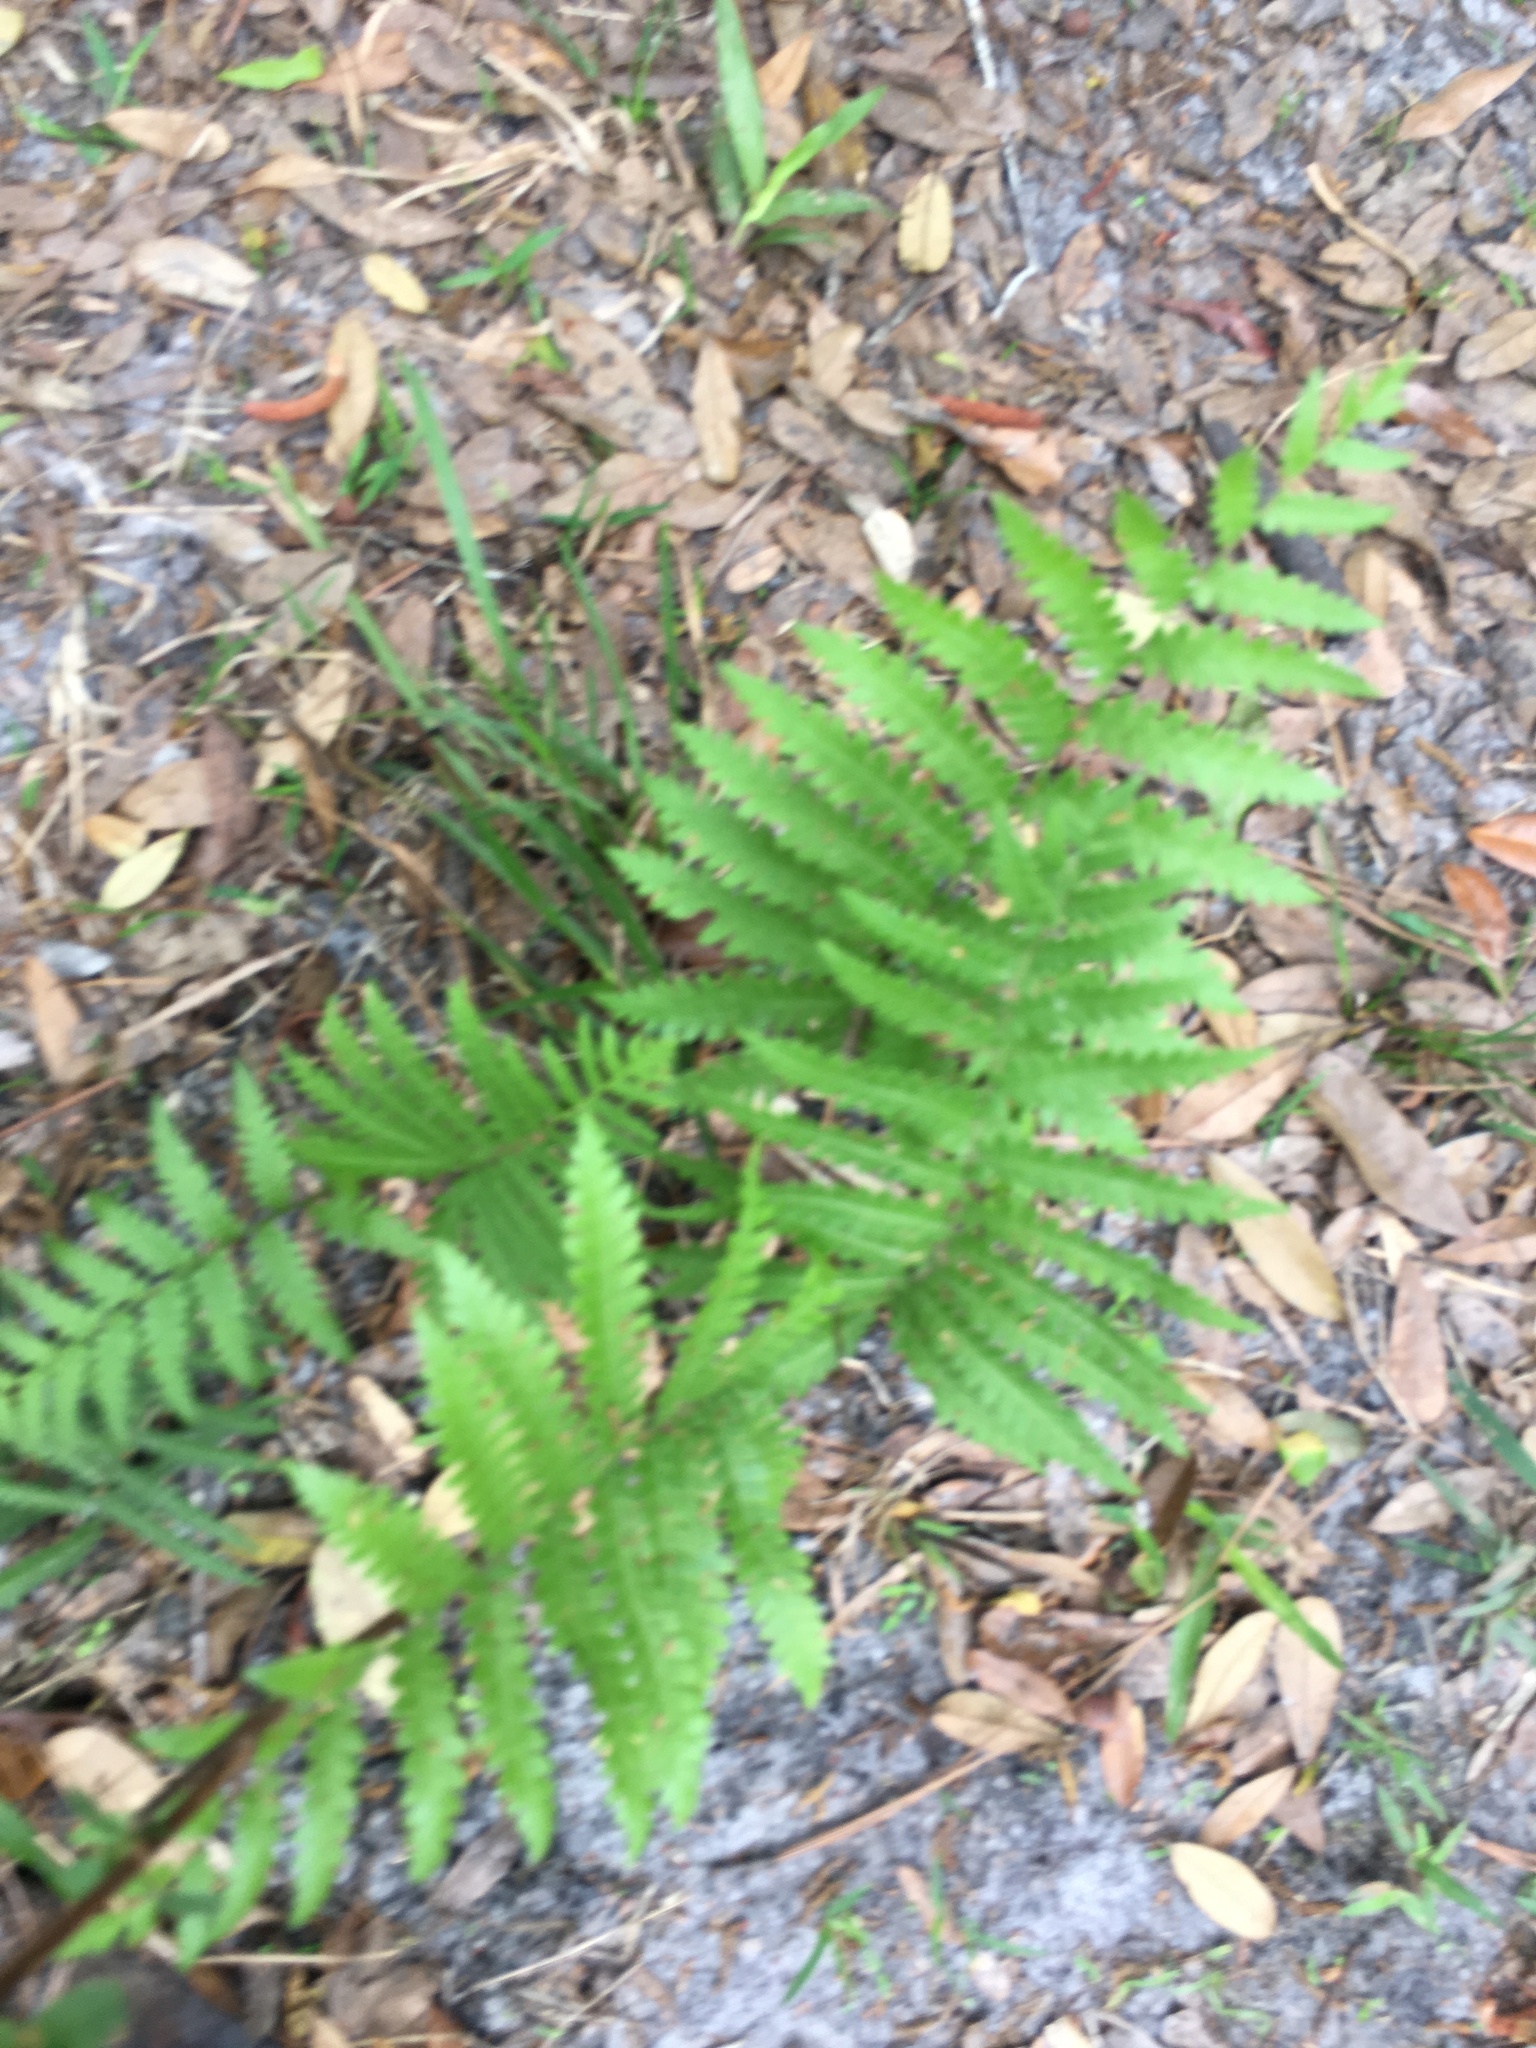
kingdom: Plantae
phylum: Tracheophyta
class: Polypodiopsida
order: Polypodiales
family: Blechnaceae
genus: Anchistea
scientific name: Anchistea virginica
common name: Virginia chain fern
